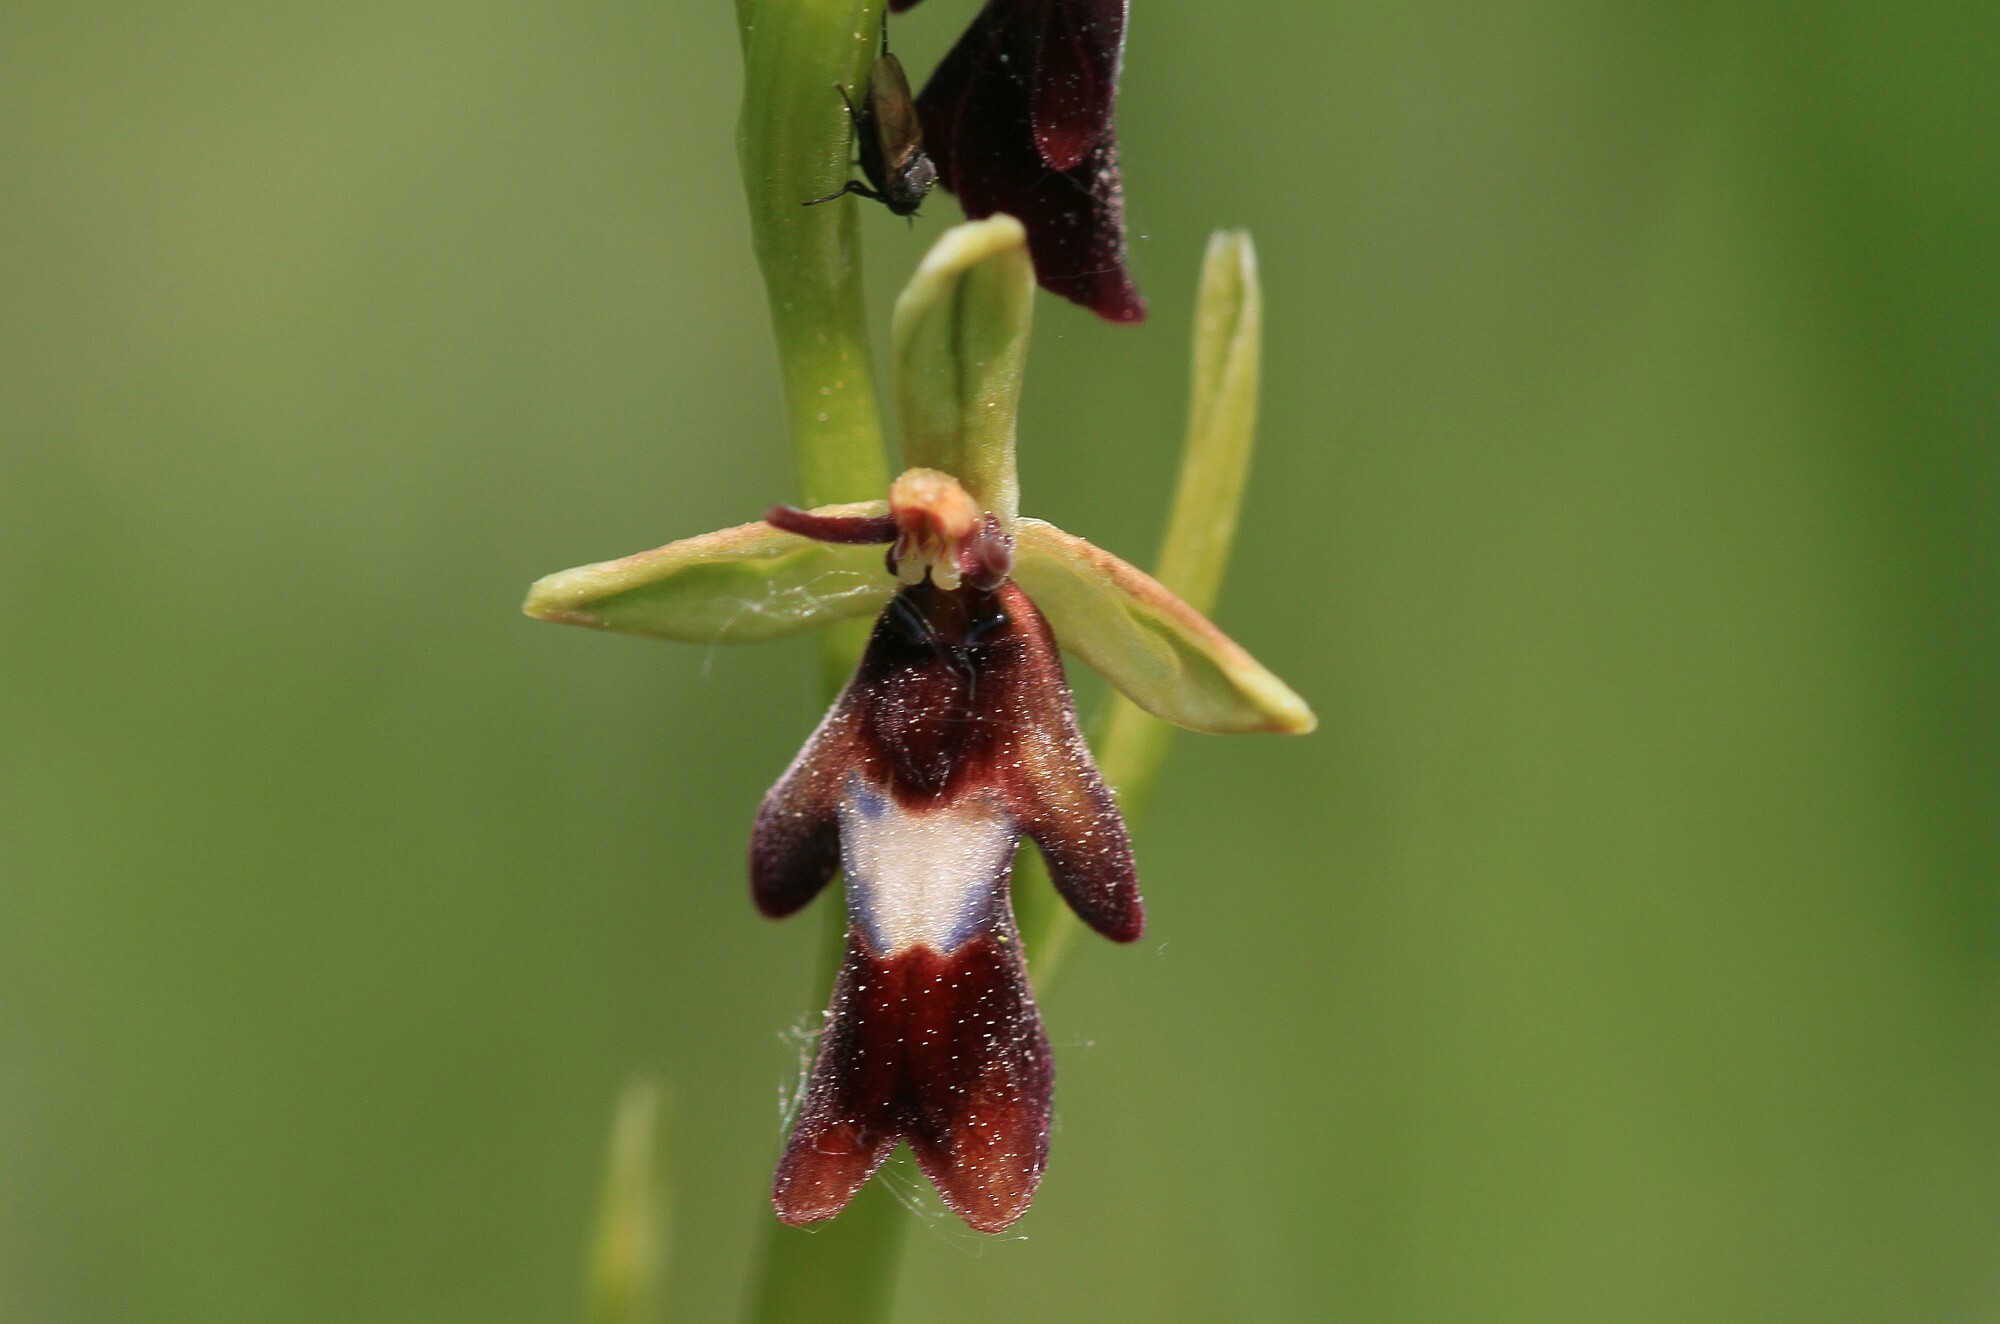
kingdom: Plantae
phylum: Tracheophyta
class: Liliopsida
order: Asparagales
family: Orchidaceae
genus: Ophrys
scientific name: Ophrys insectifera
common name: Fly orchid
